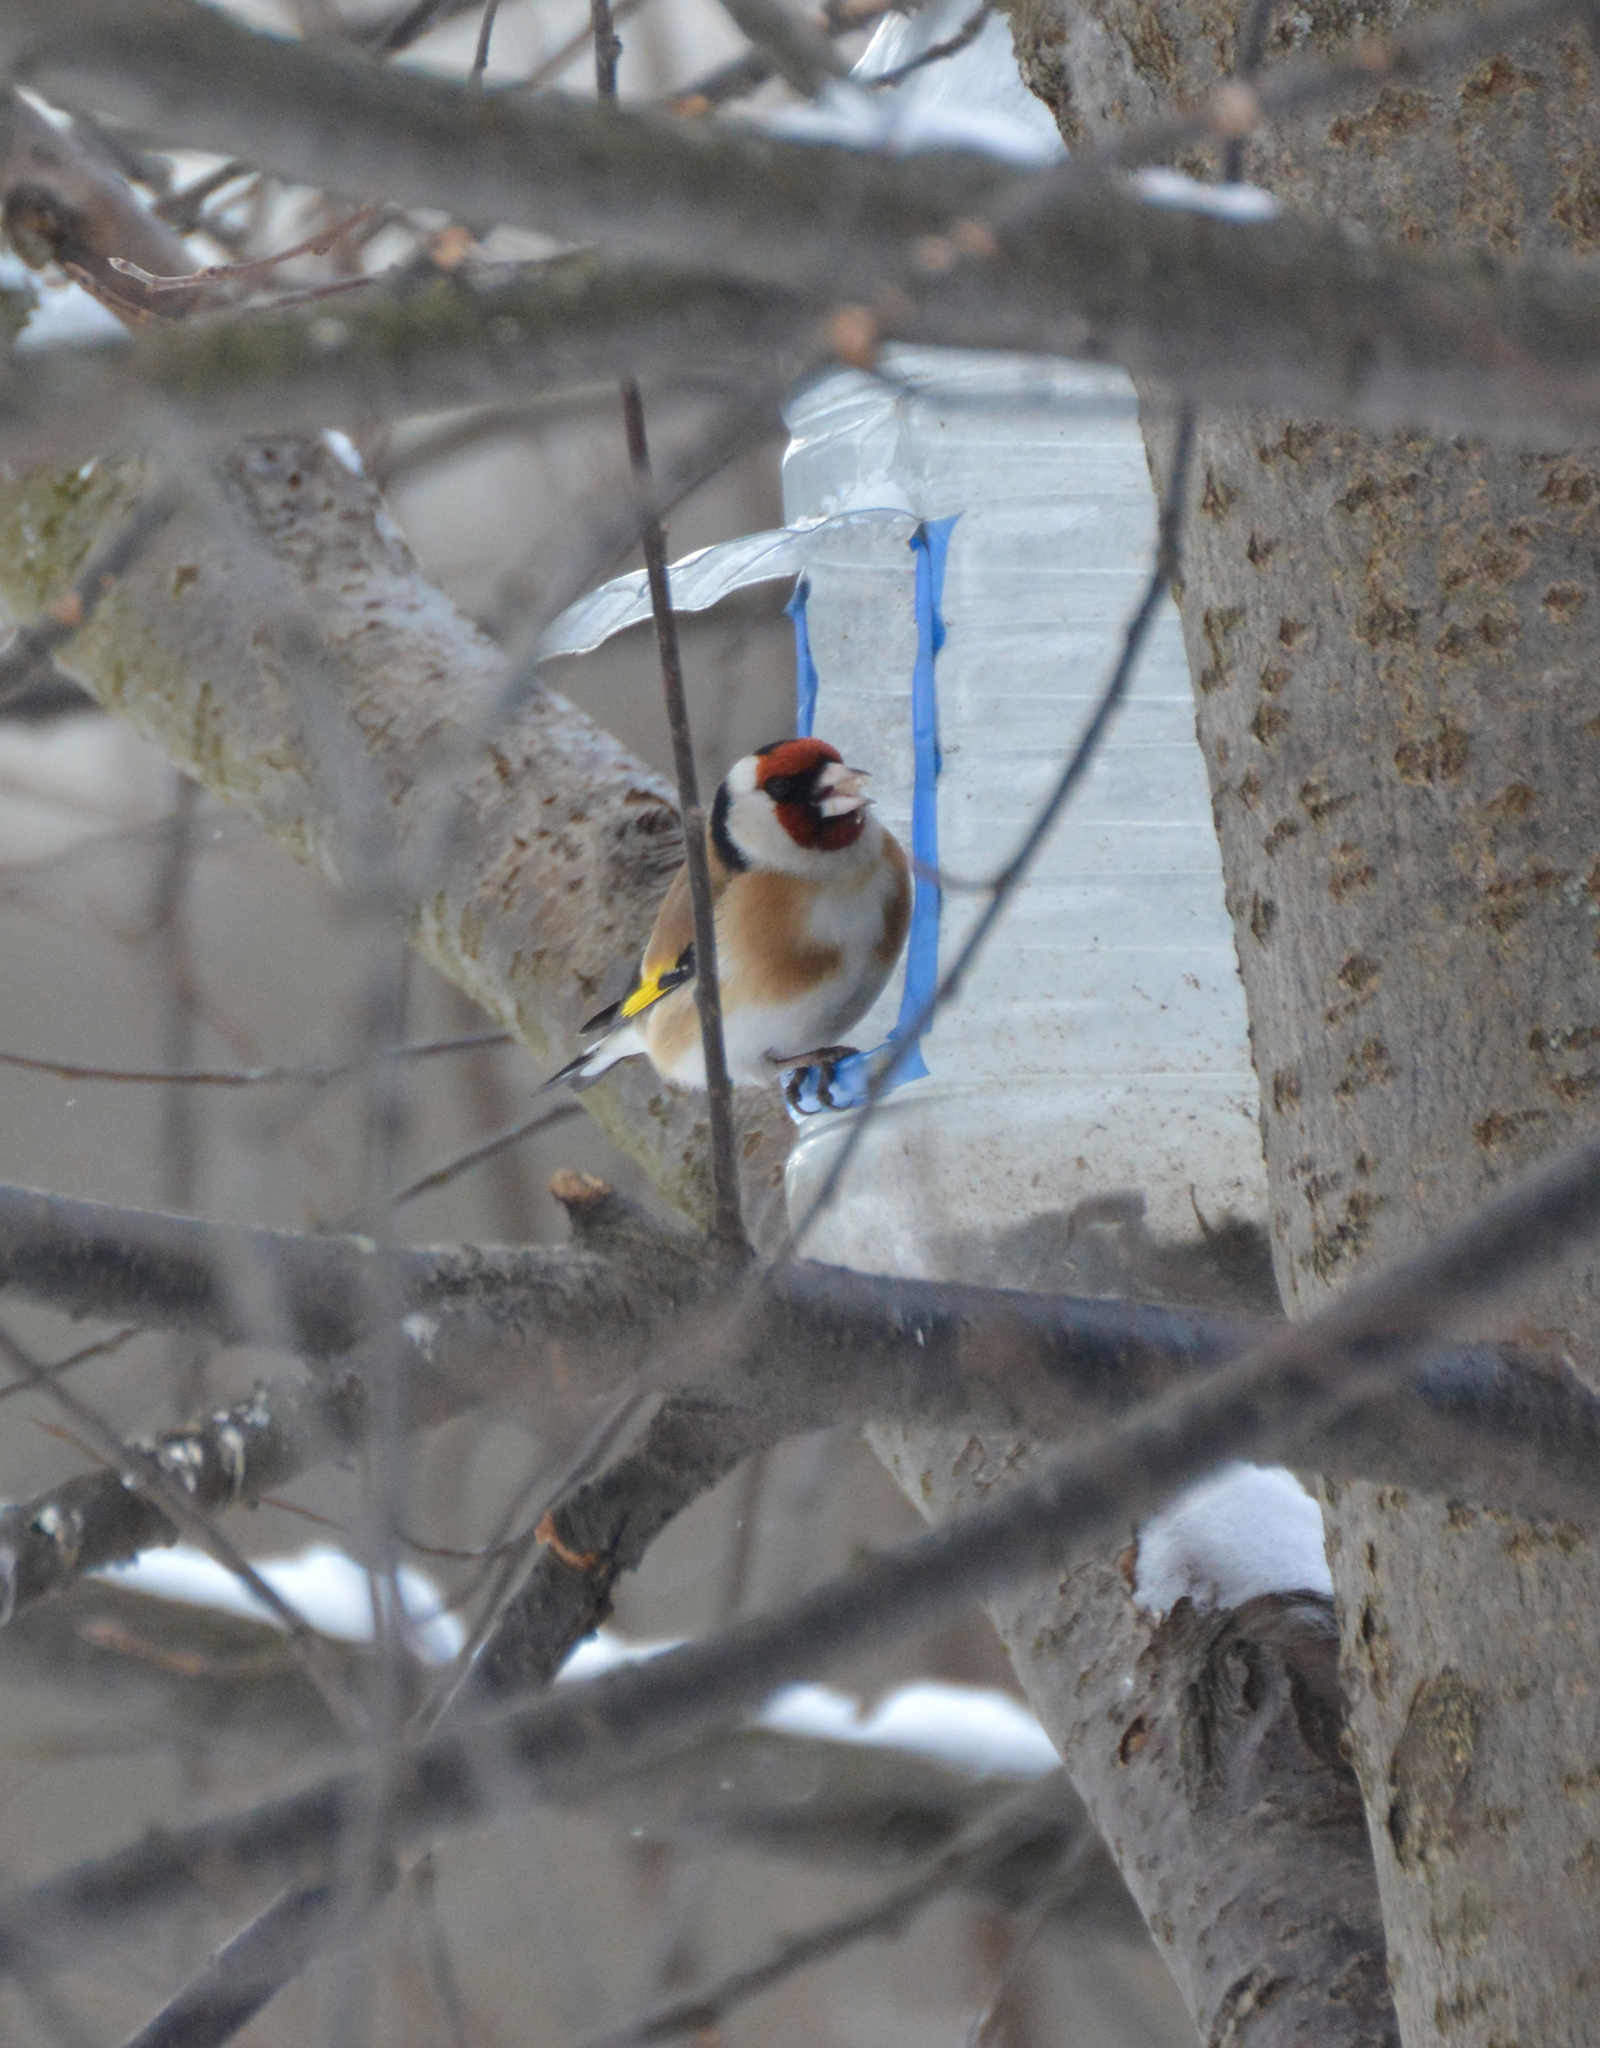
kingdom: Animalia
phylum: Chordata
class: Aves
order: Passeriformes
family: Fringillidae
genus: Carduelis
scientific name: Carduelis carduelis
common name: European goldfinch
